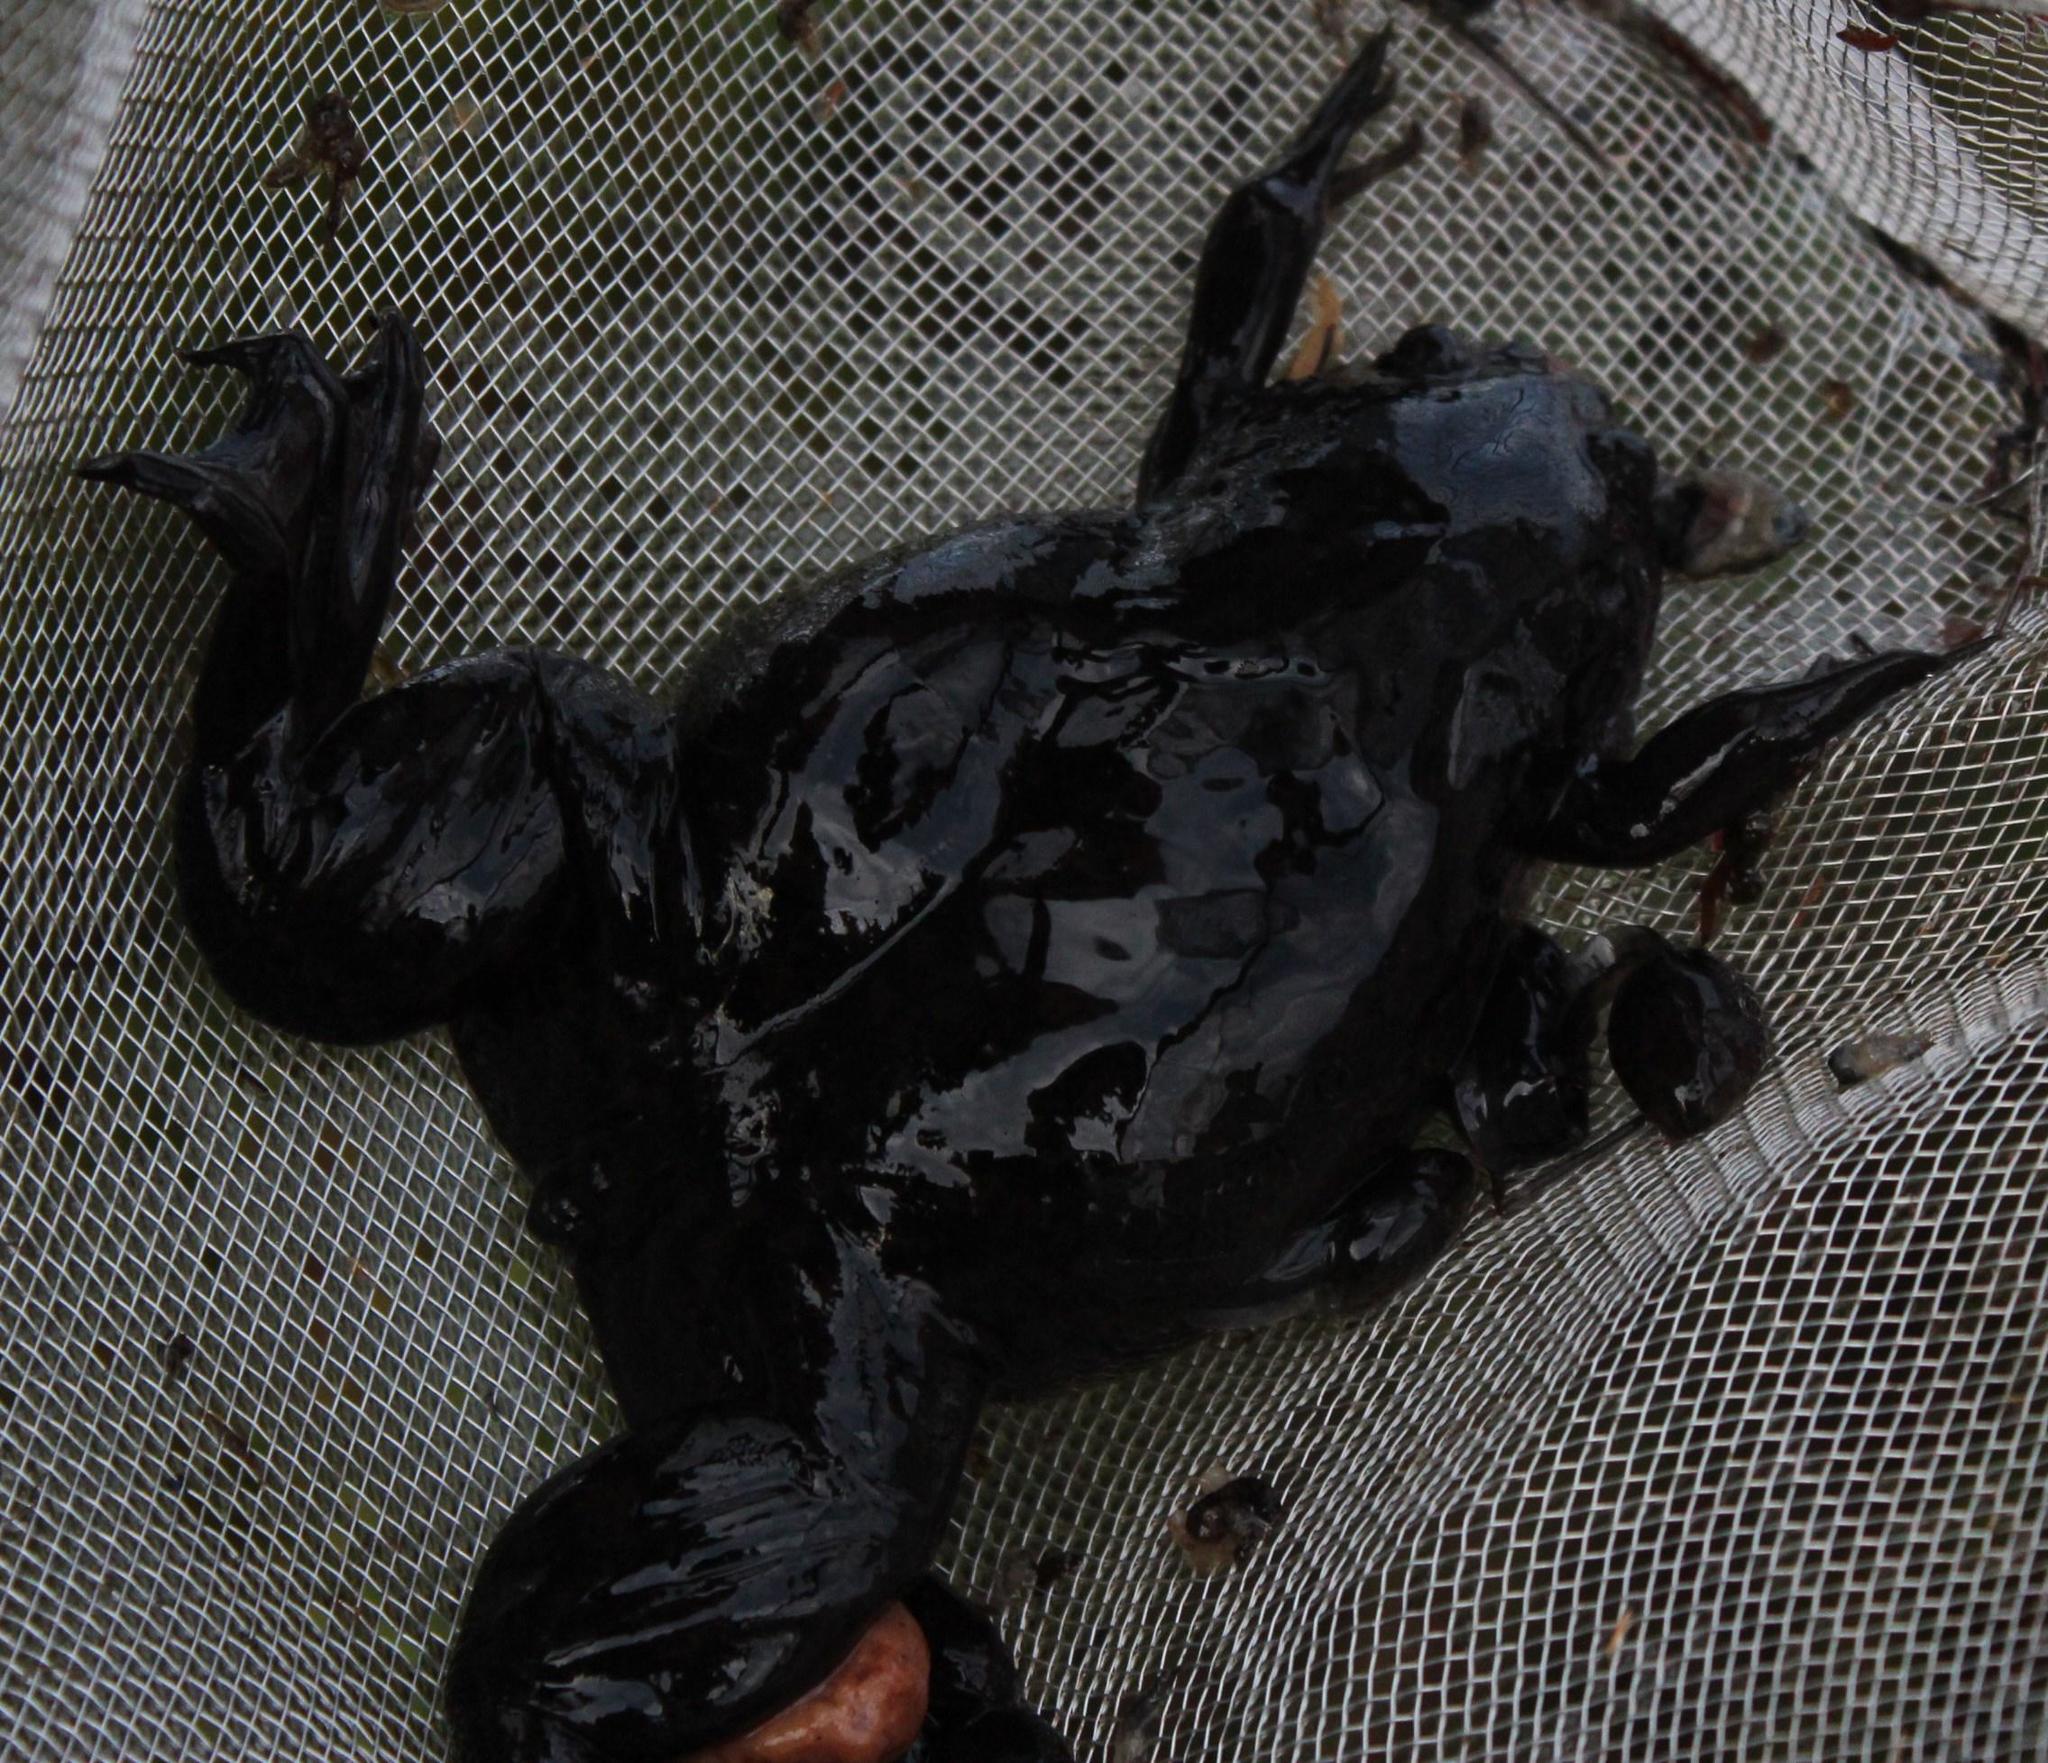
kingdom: Animalia
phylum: Chordata
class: Amphibia
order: Anura
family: Pipidae
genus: Xenopus
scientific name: Xenopus laevis
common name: African clawed frog
